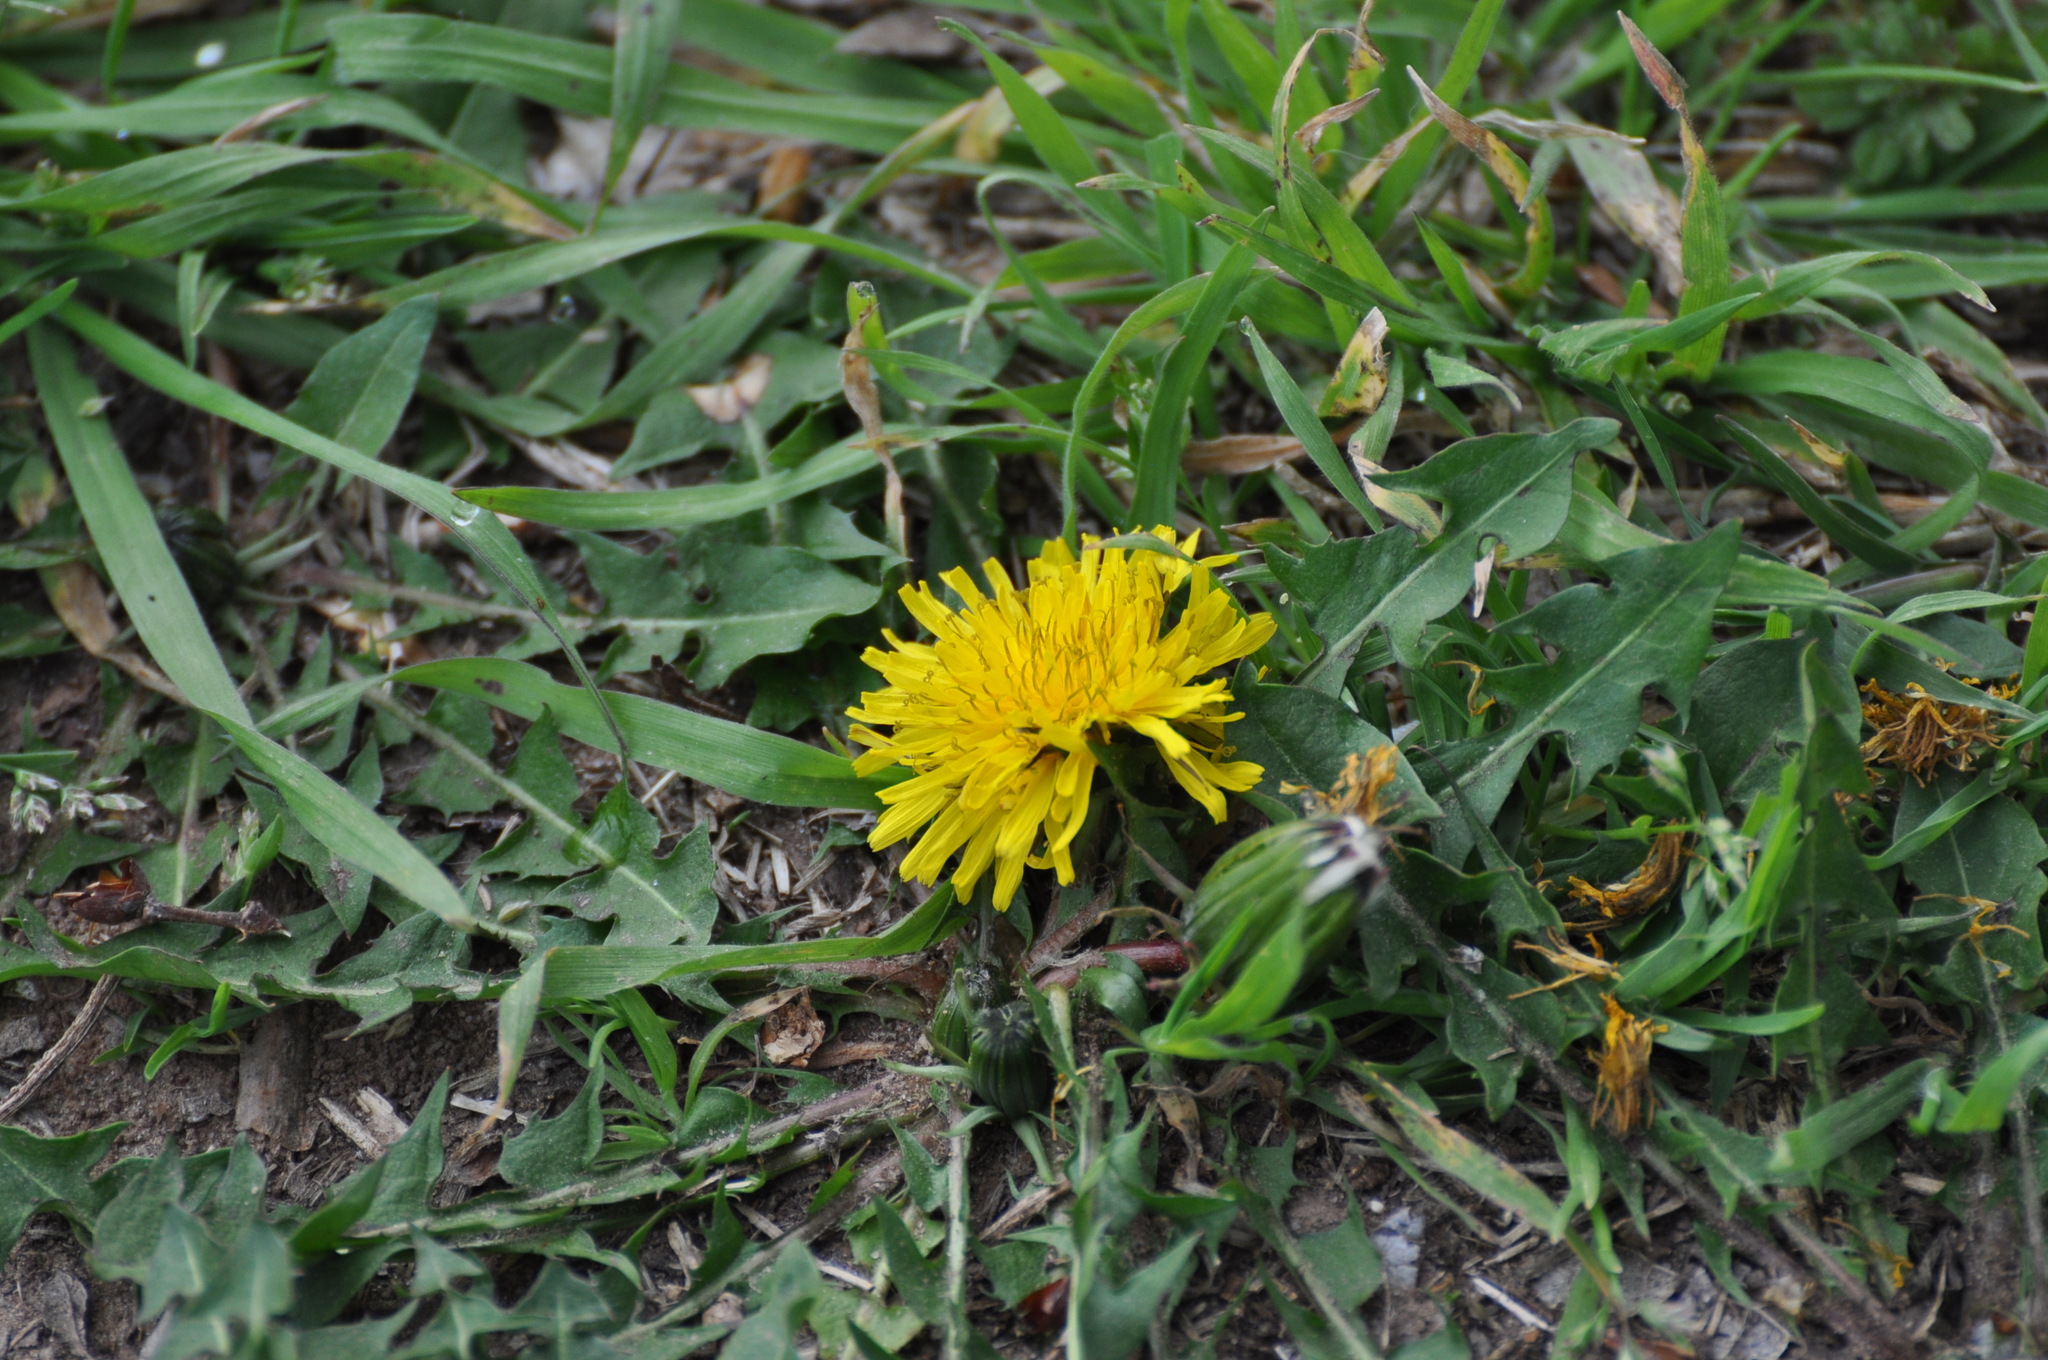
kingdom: Plantae
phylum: Tracheophyta
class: Magnoliopsida
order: Asterales
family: Asteraceae
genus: Taraxacum
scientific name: Taraxacum officinale
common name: Common dandelion
